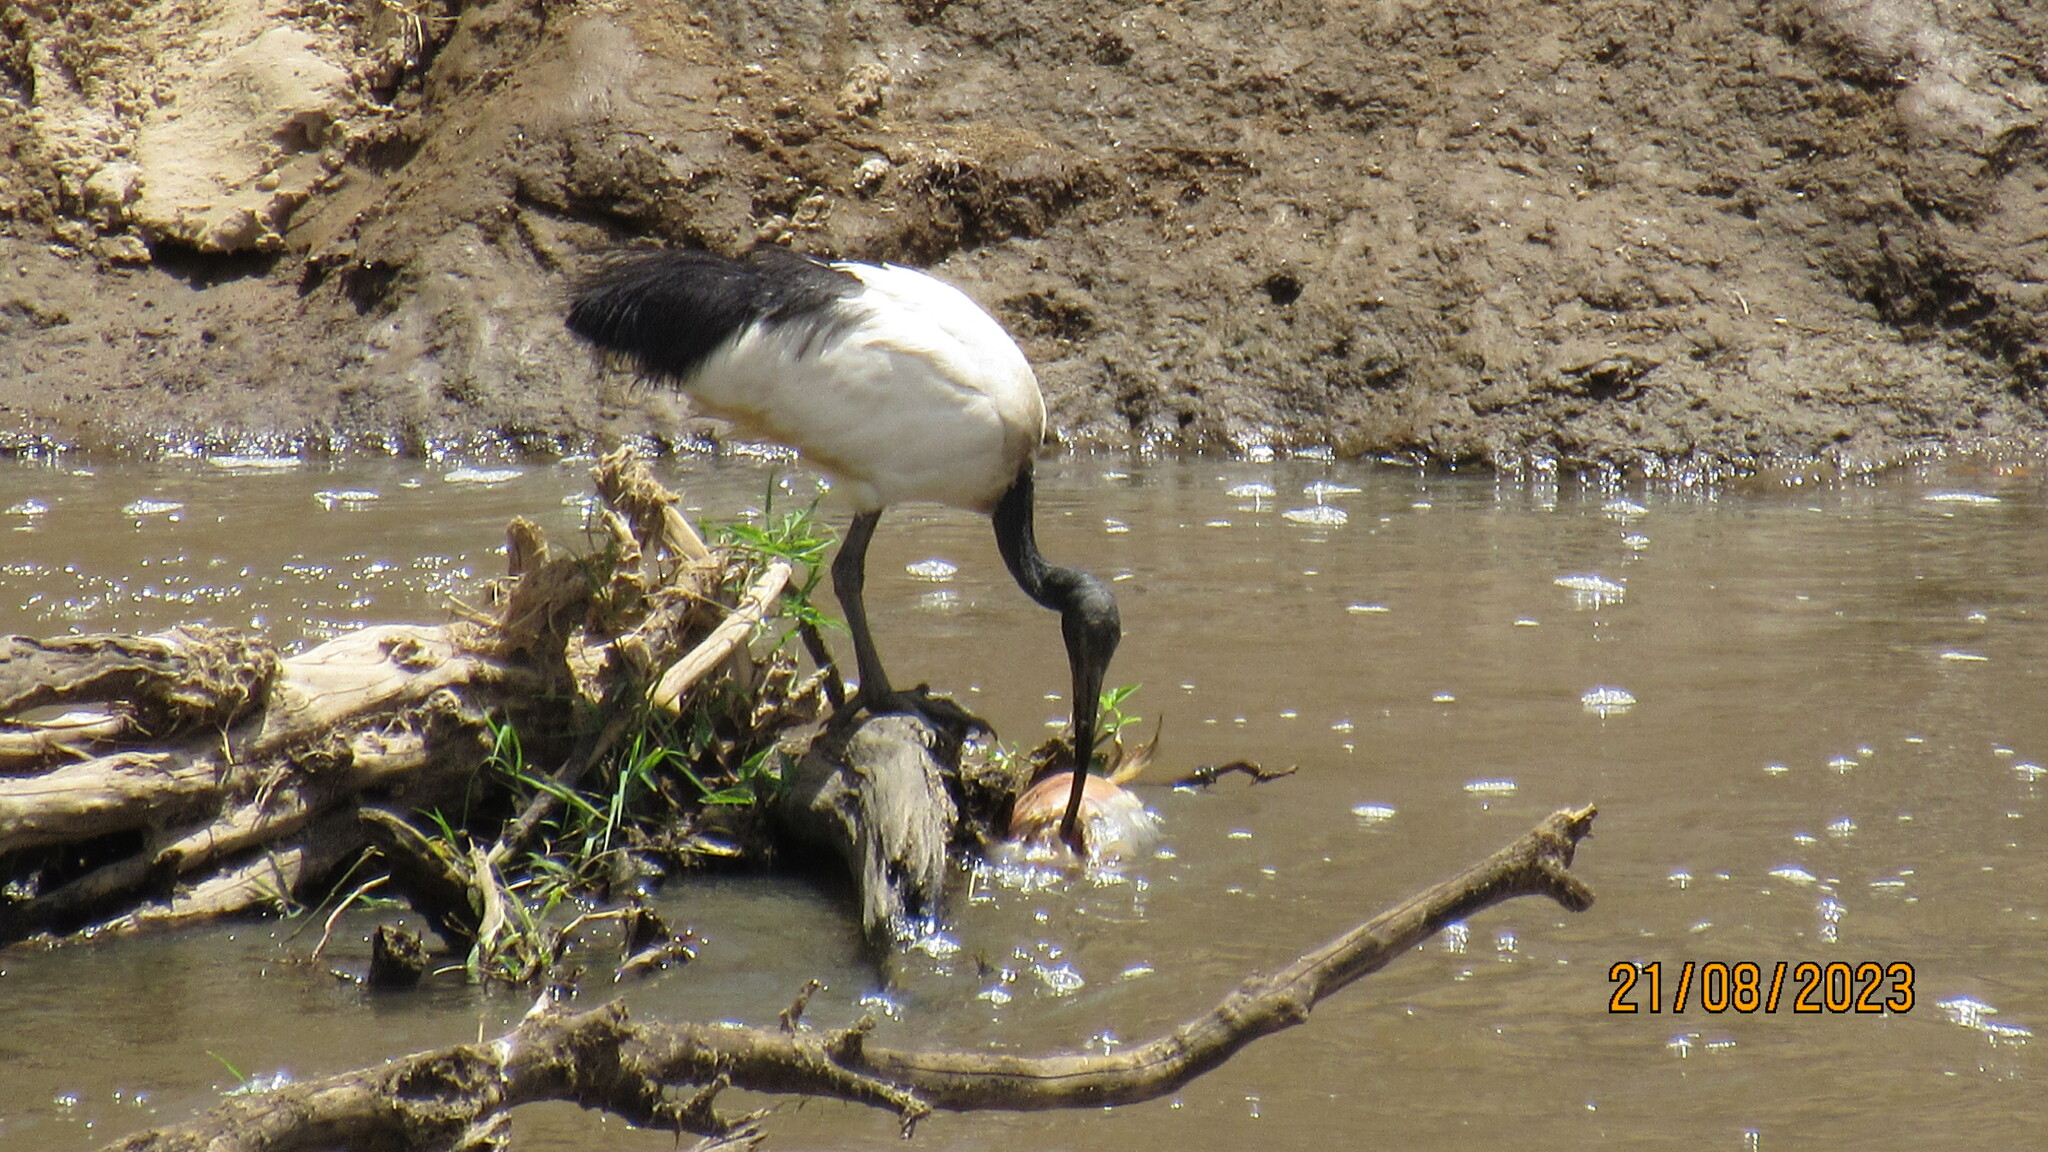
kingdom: Animalia
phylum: Chordata
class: Aves
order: Pelecaniformes
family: Threskiornithidae
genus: Threskiornis
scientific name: Threskiornis aethiopicus
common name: Sacred ibis
